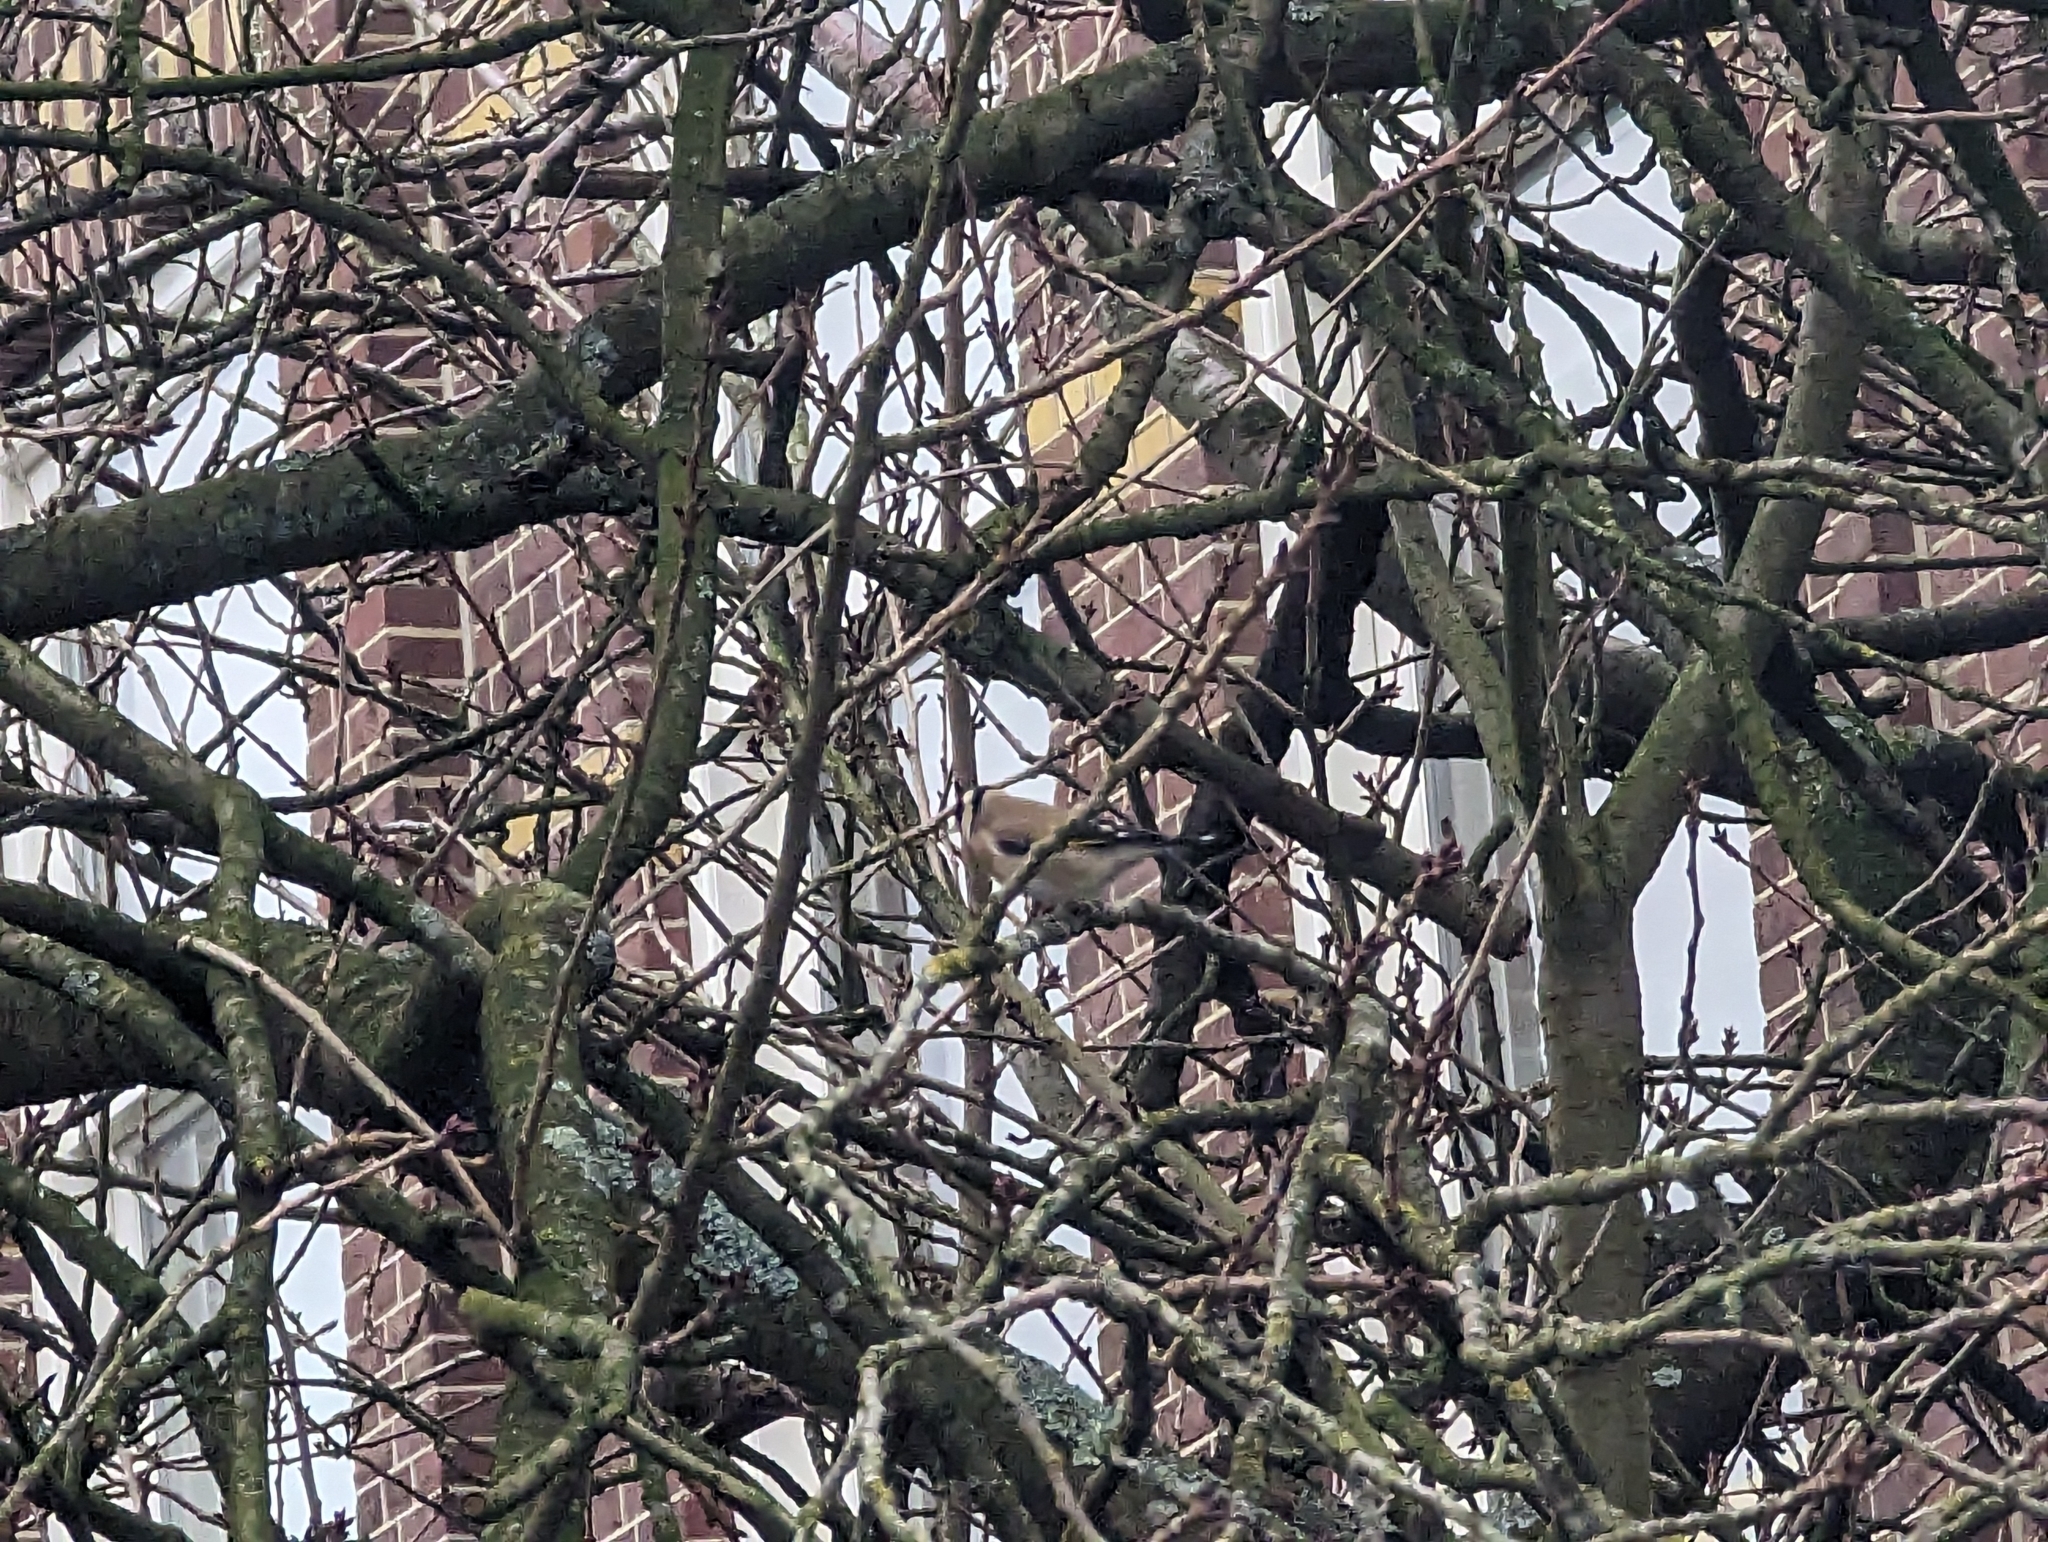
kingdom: Animalia
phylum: Chordata
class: Aves
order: Passeriformes
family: Fringillidae
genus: Carduelis
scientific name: Carduelis carduelis
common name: European goldfinch
